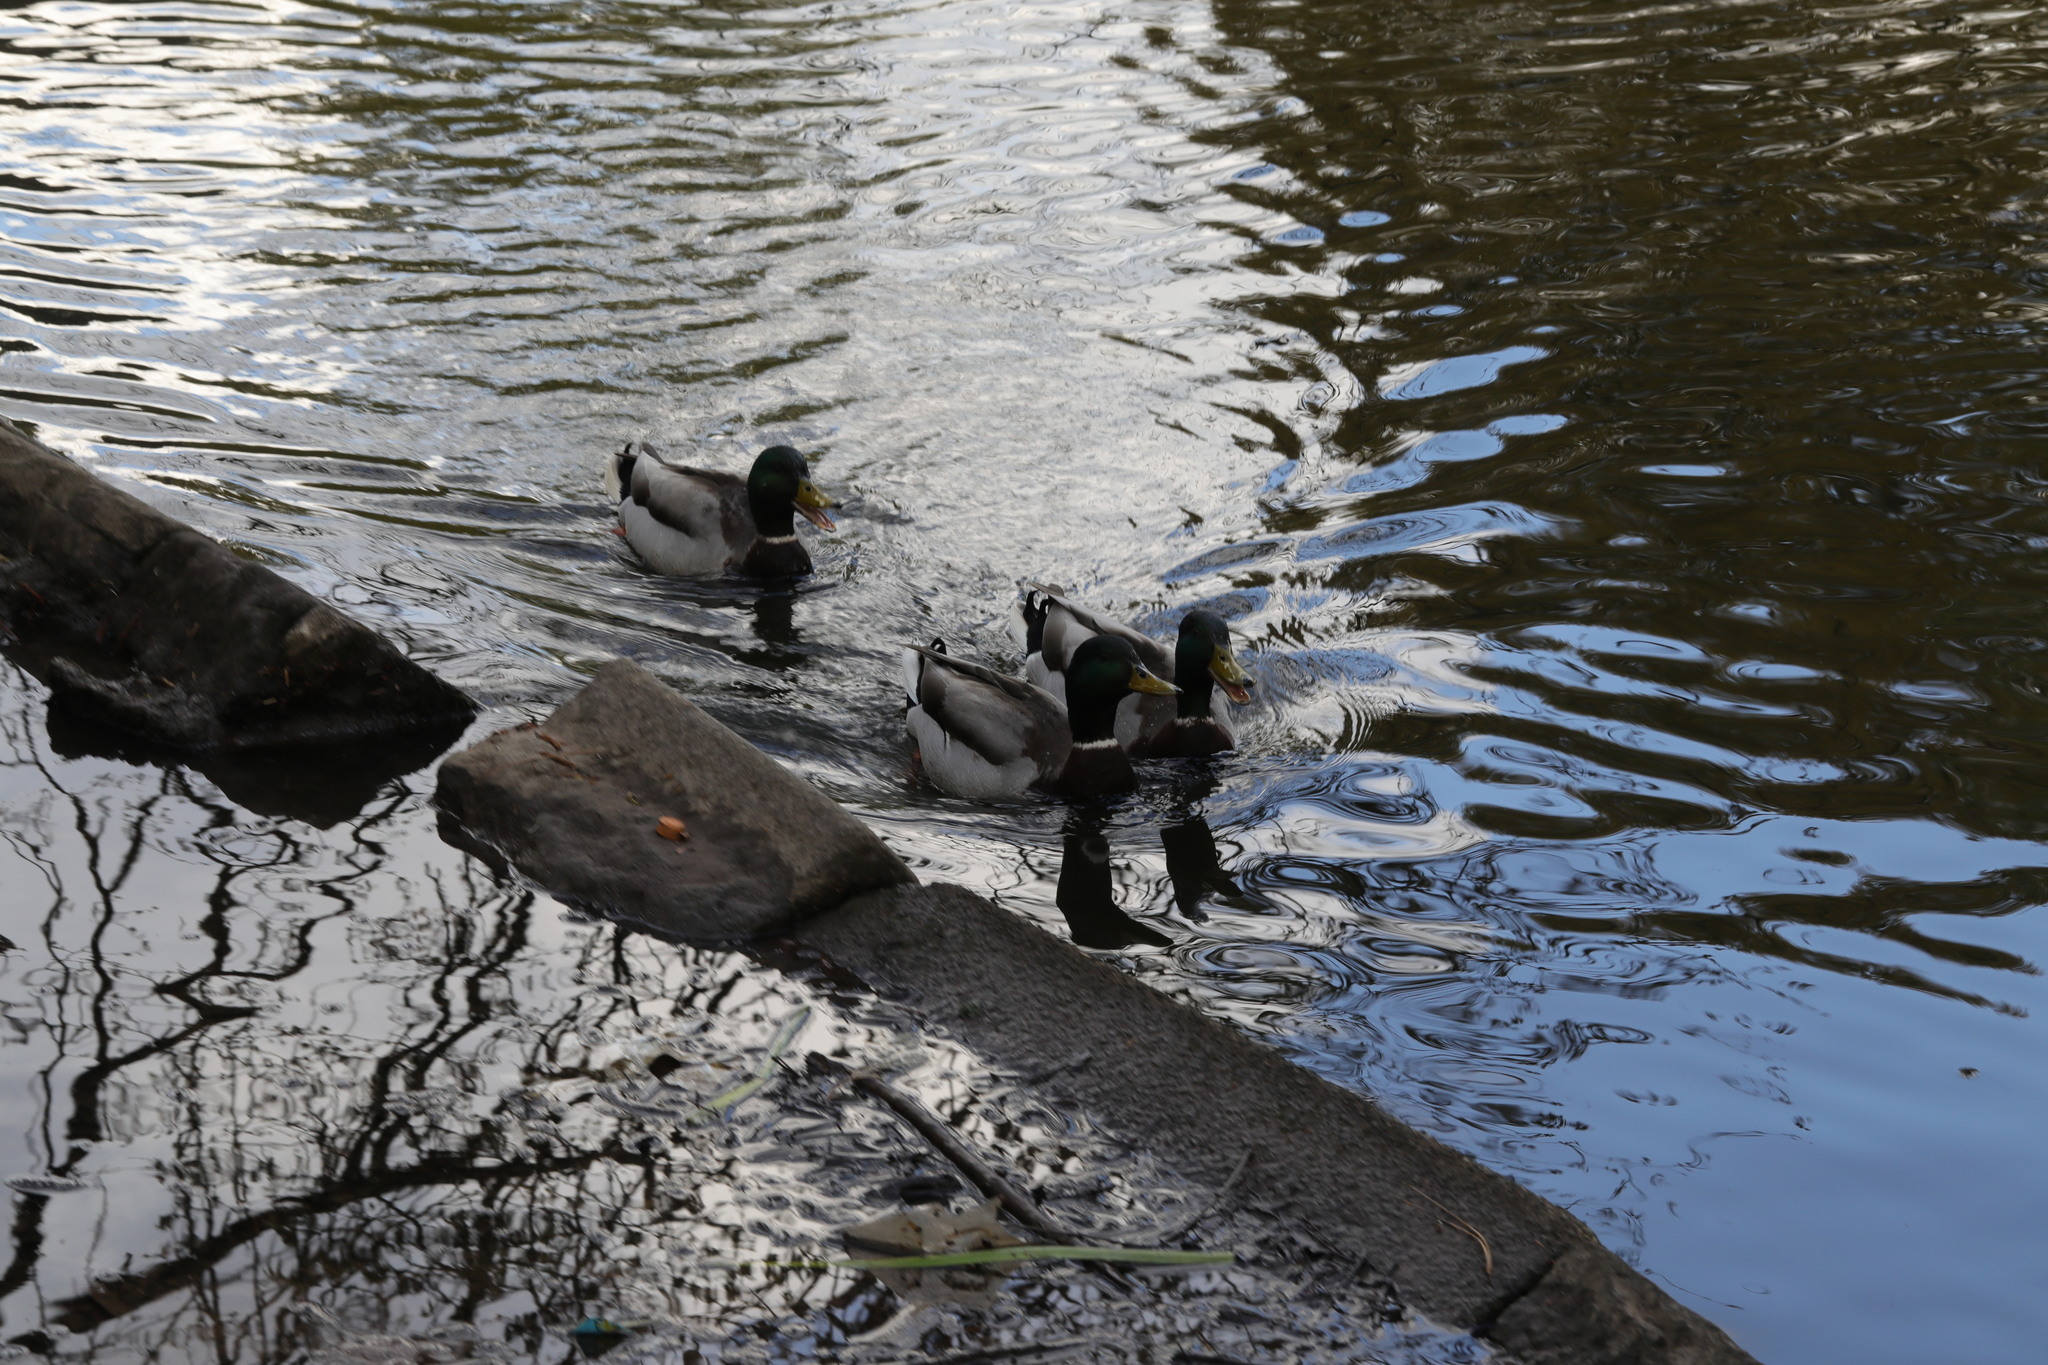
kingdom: Animalia
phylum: Chordata
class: Aves
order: Anseriformes
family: Anatidae
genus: Anas
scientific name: Anas platyrhynchos
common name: Mallard
